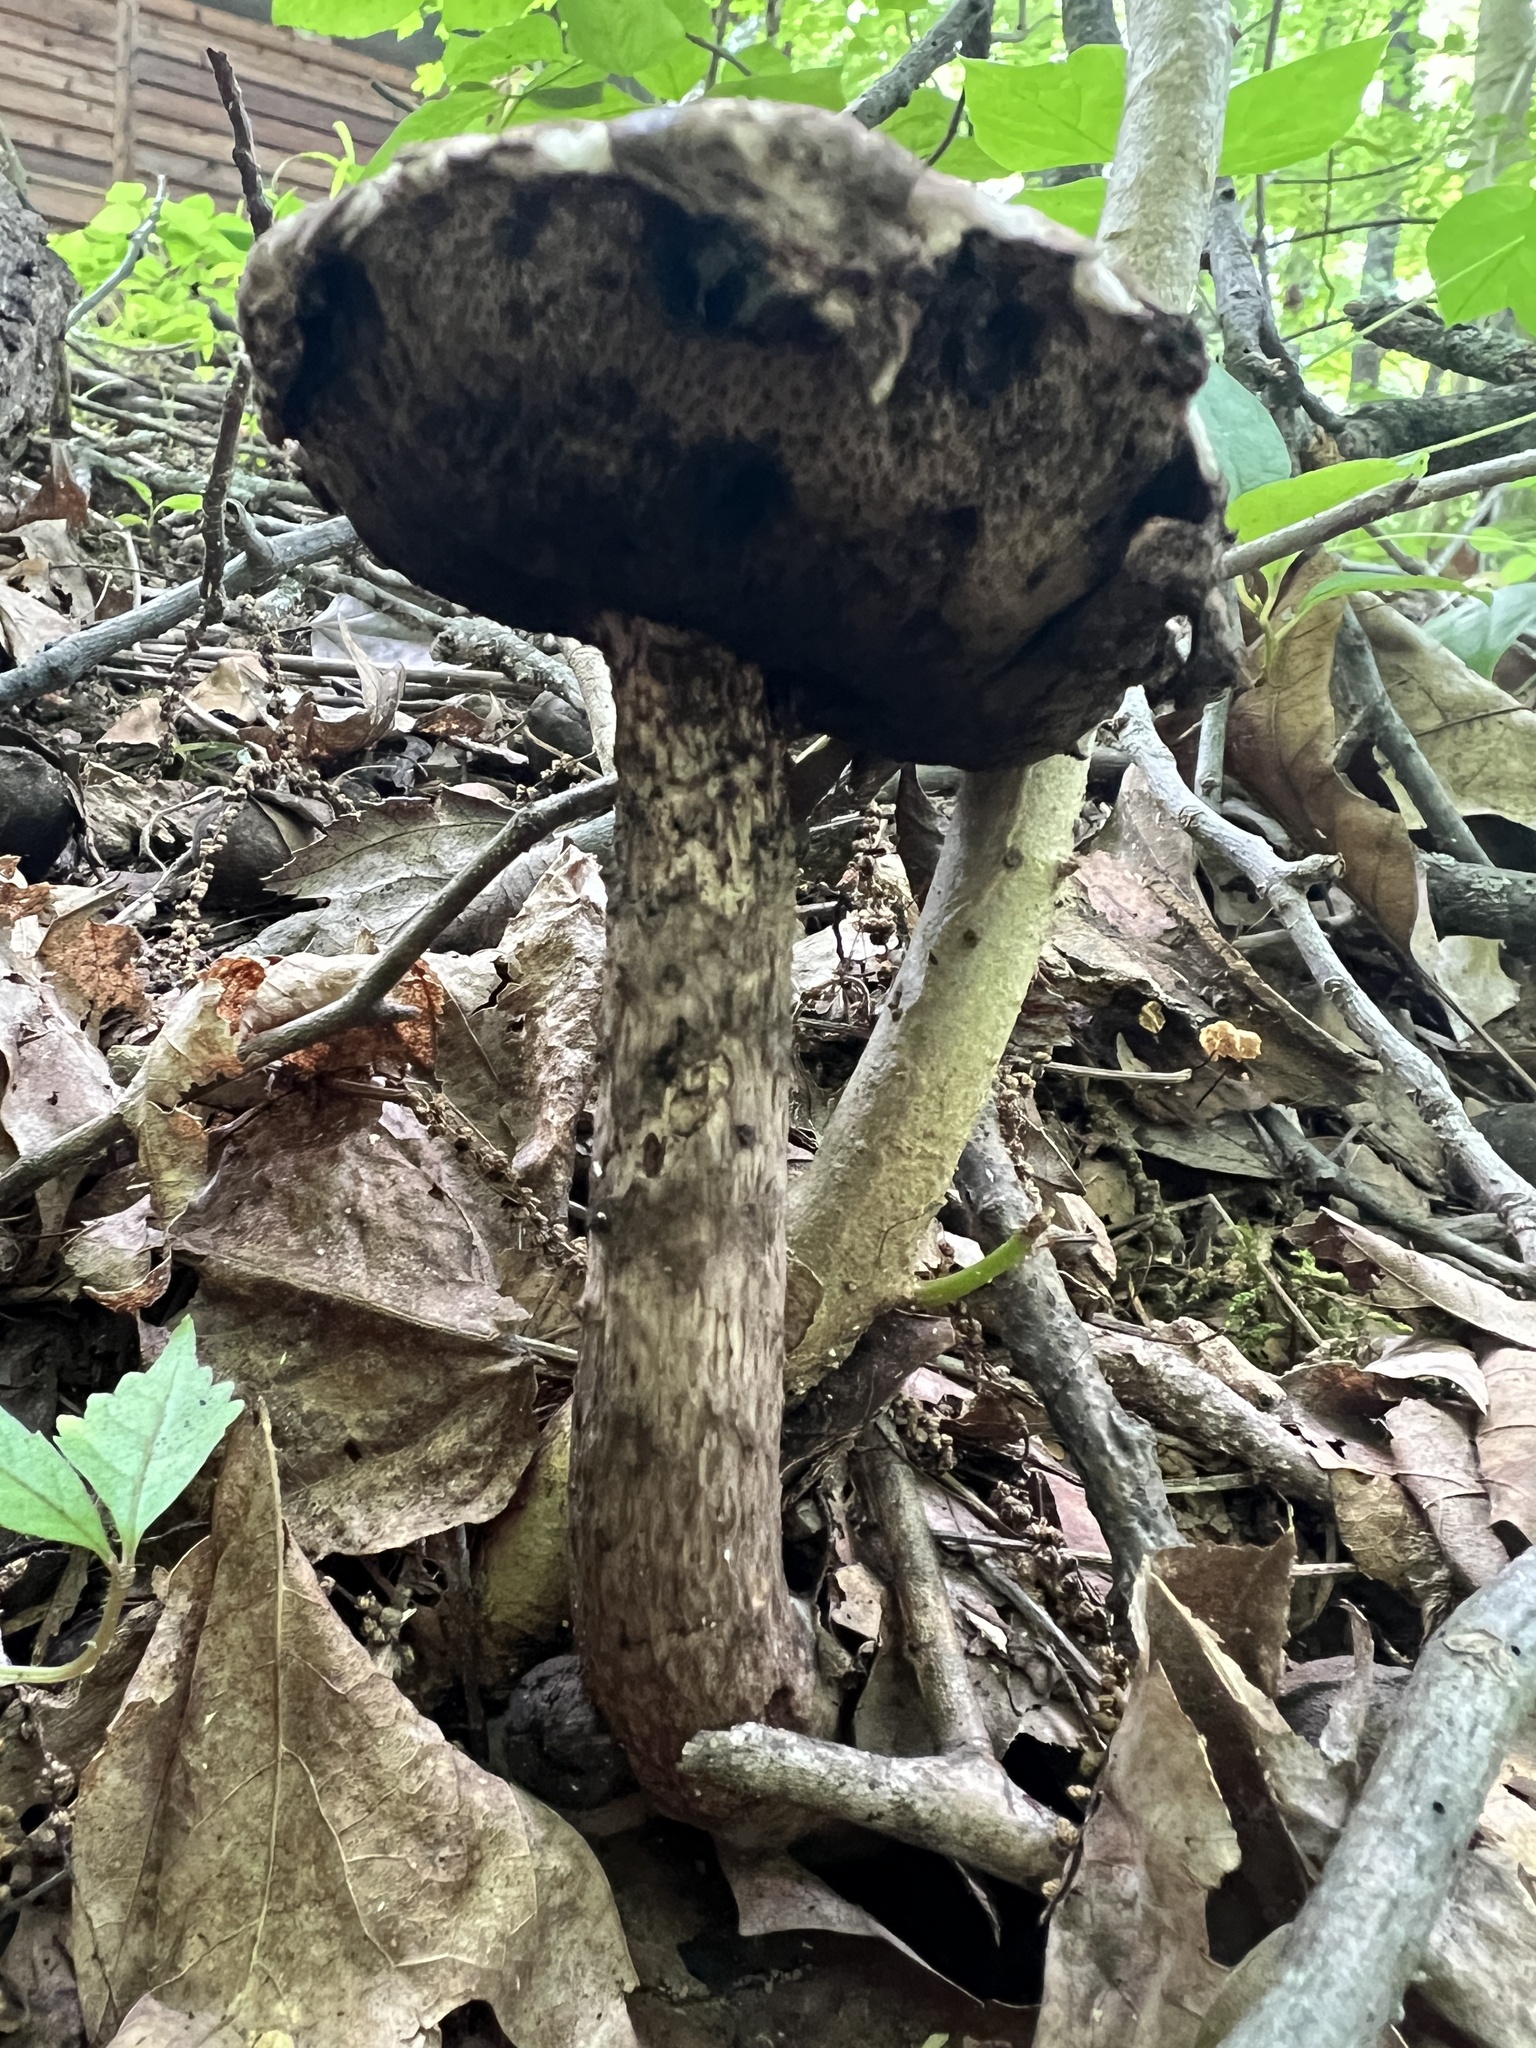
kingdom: Fungi
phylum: Basidiomycota
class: Agaricomycetes
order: Boletales
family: Boletaceae
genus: Strobilomyces
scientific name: Strobilomyces strobilaceus
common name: Old man of the woods
